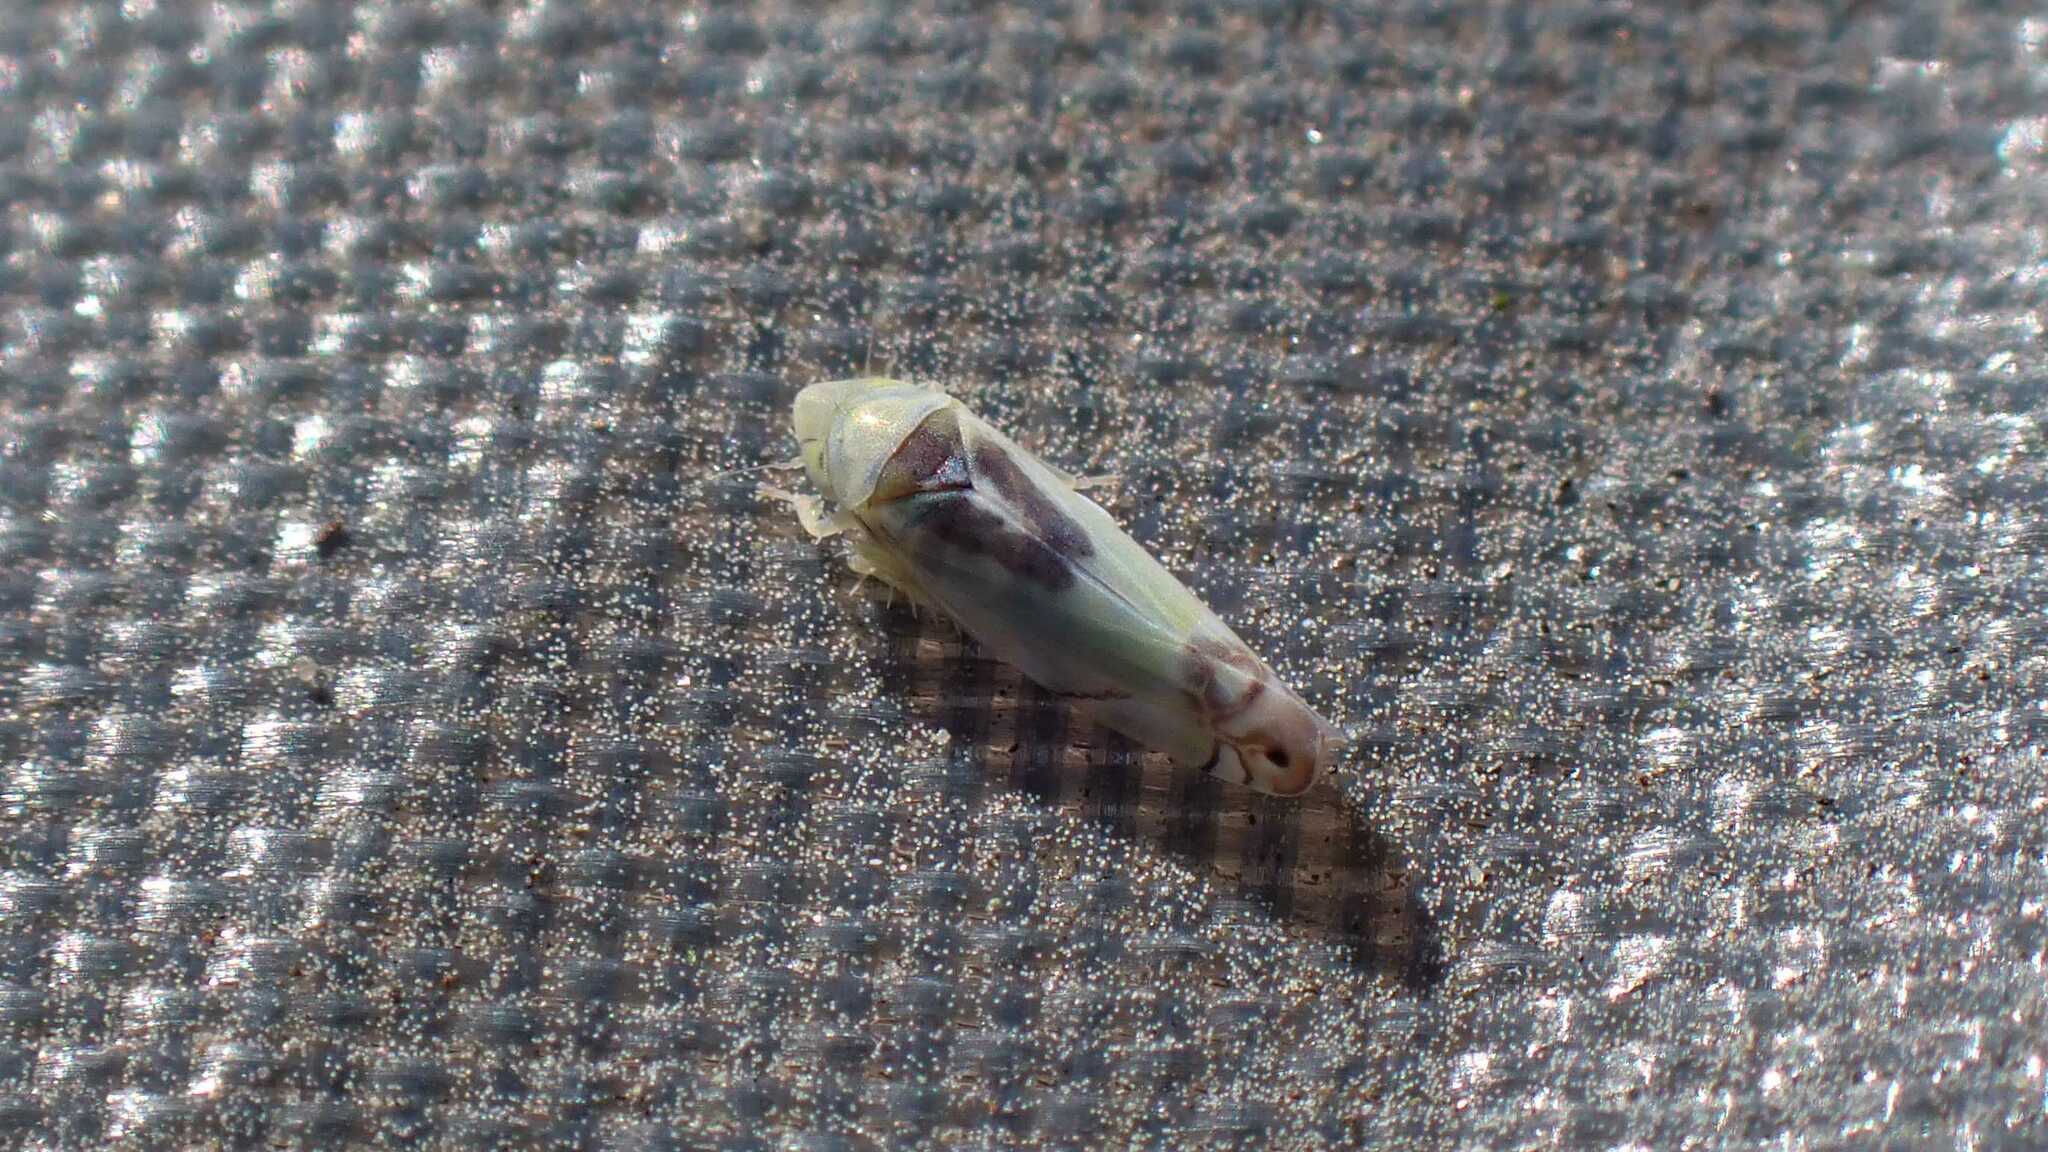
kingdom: Animalia
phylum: Arthropoda
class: Insecta
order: Hemiptera
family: Cicadellidae
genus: Zyginella
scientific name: Zyginella pulchra
